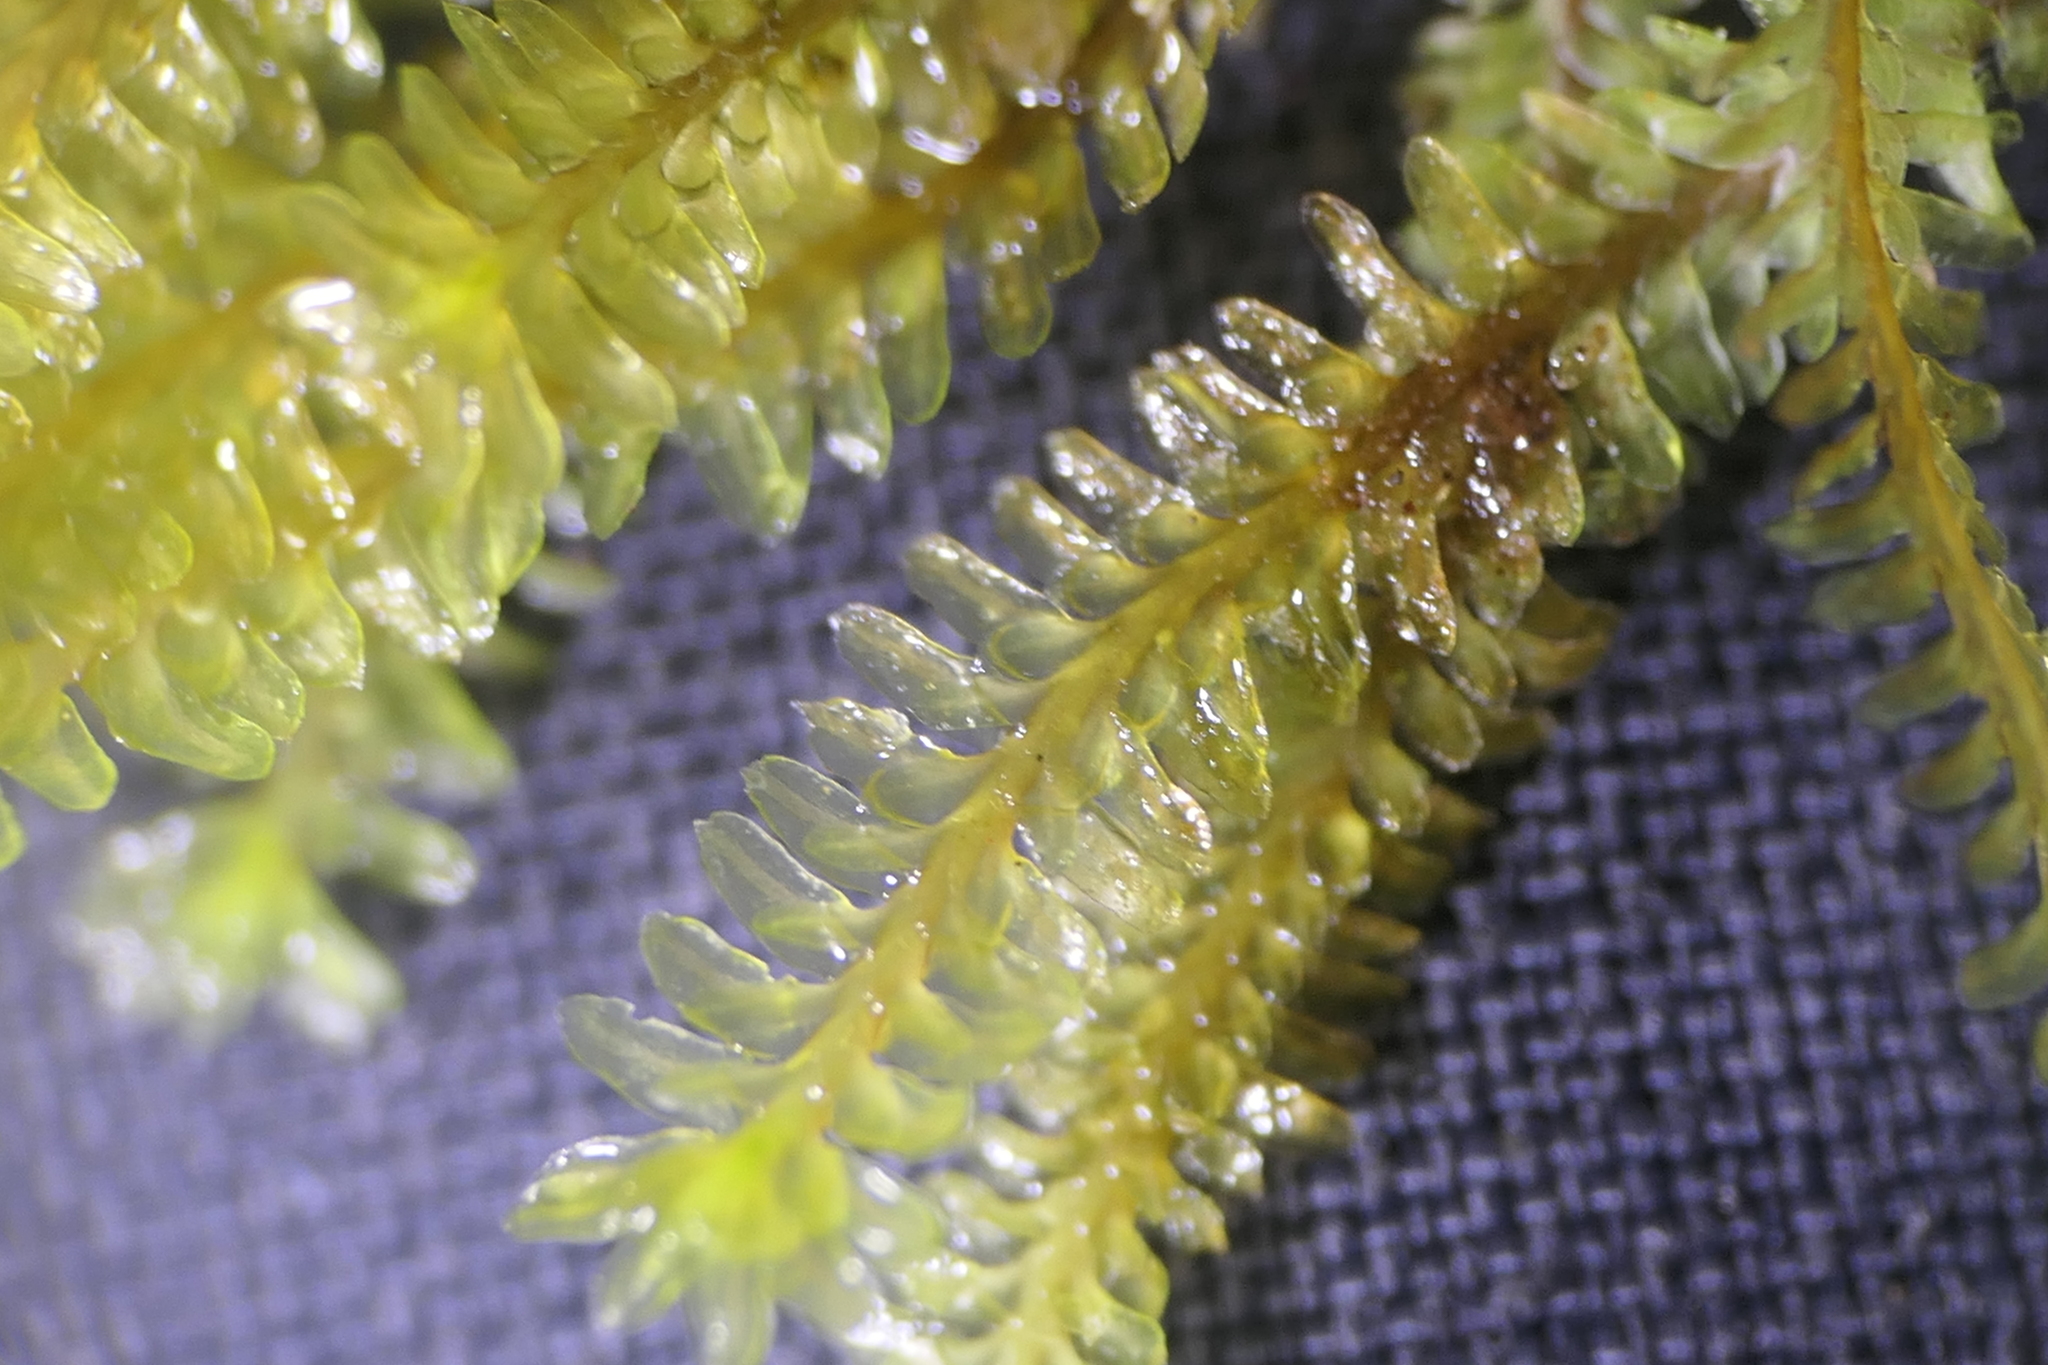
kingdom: Plantae
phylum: Marchantiophyta
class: Jungermanniopsida
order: Jungermanniales
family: Scapaniaceae
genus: Diplophyllum
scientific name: Diplophyllum albicans
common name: White earwort
